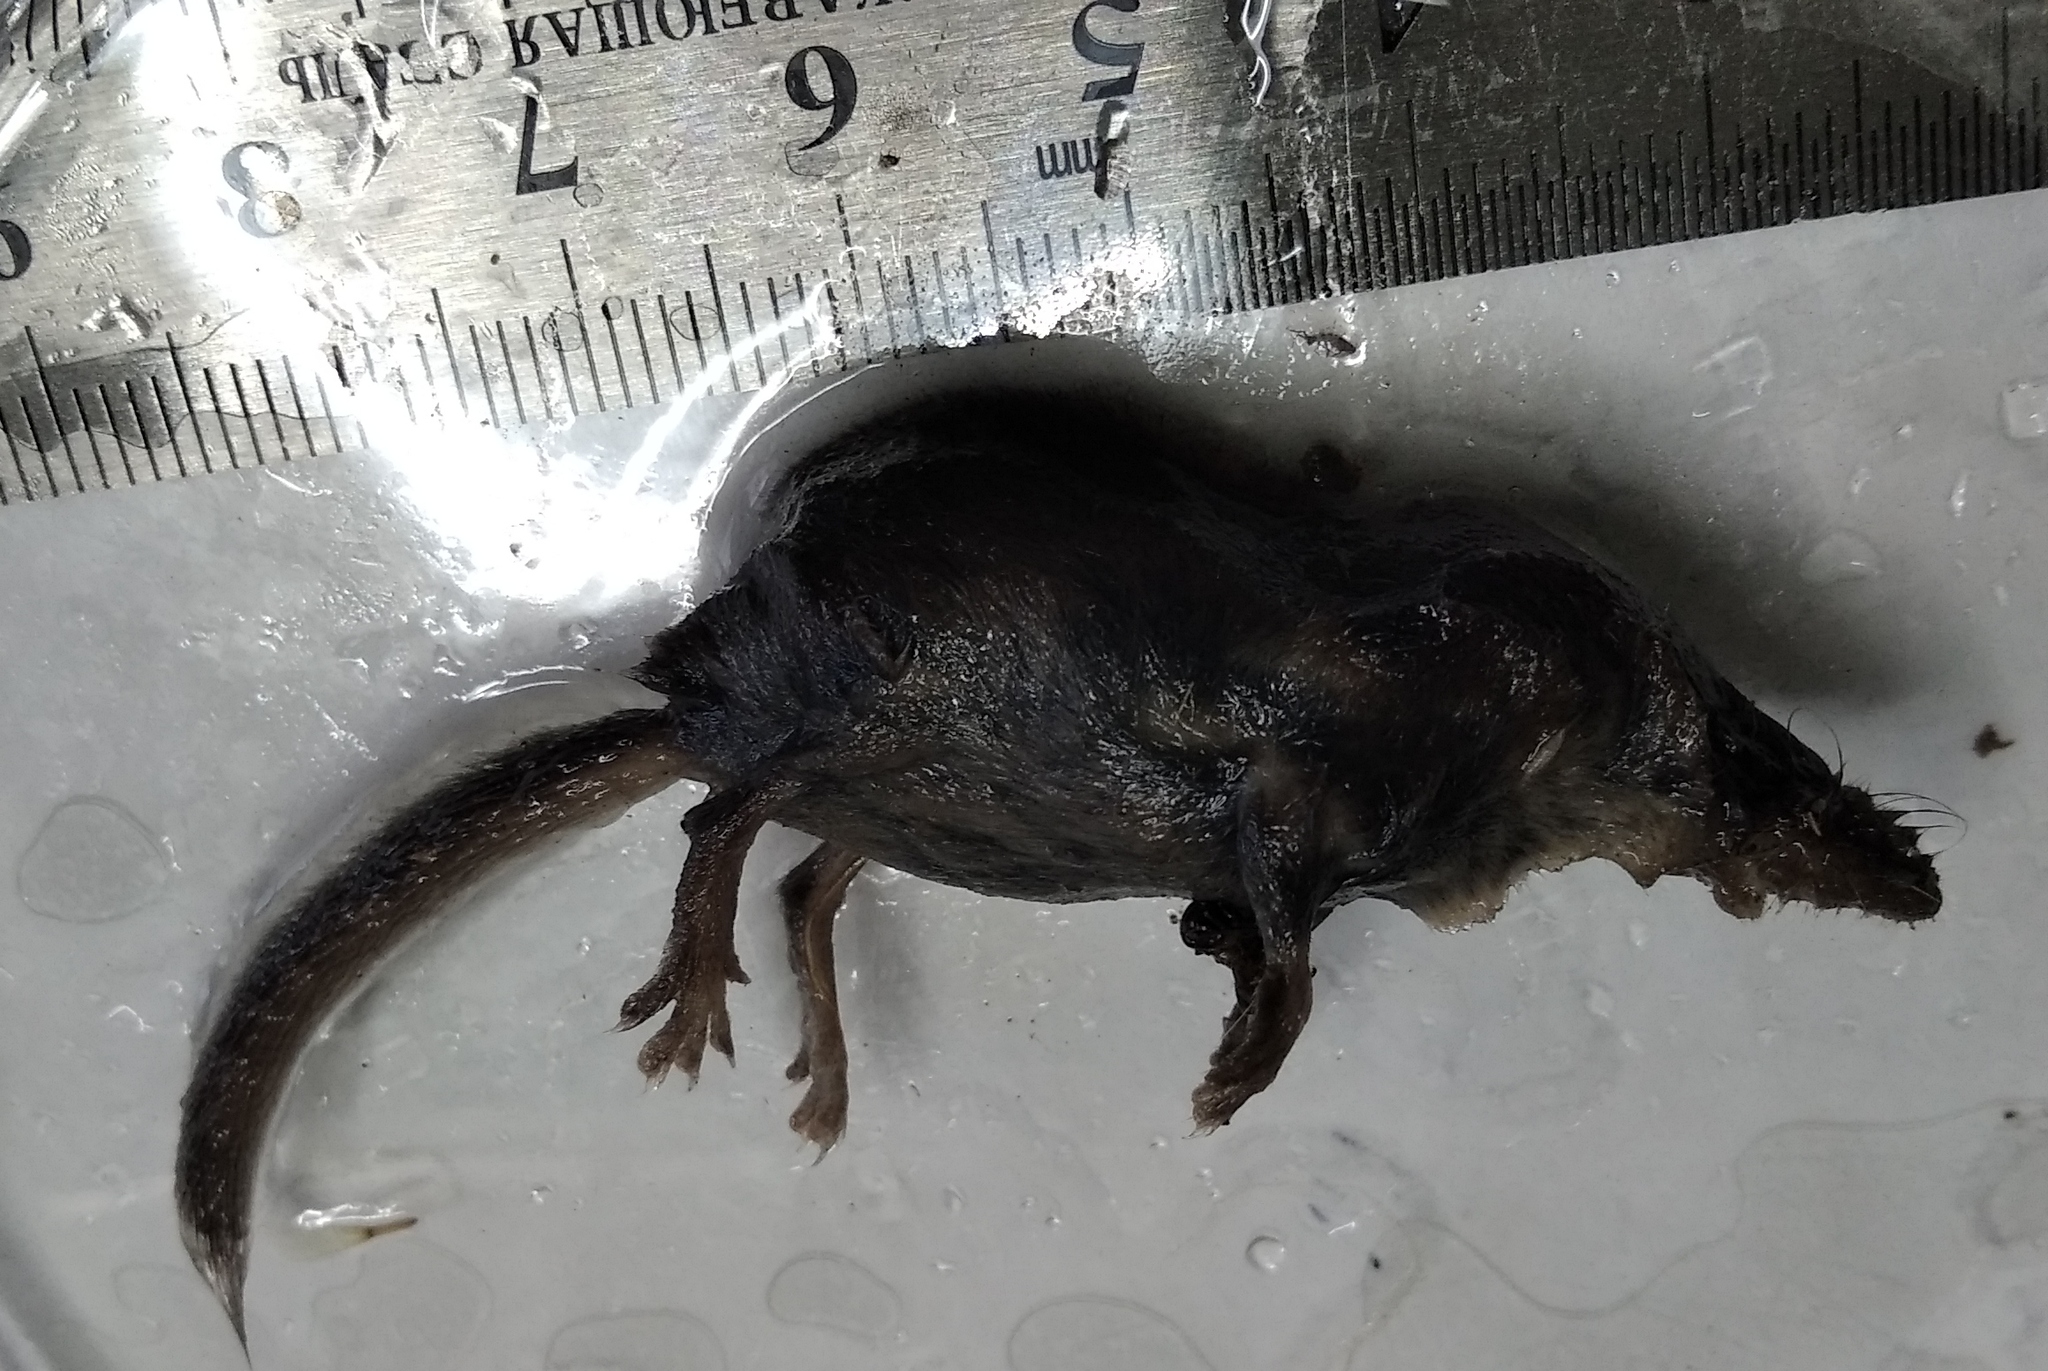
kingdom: Animalia
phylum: Chordata
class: Mammalia
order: Soricomorpha
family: Soricidae
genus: Sorex
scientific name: Sorex minutus
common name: Eurasian pygmy shrew
